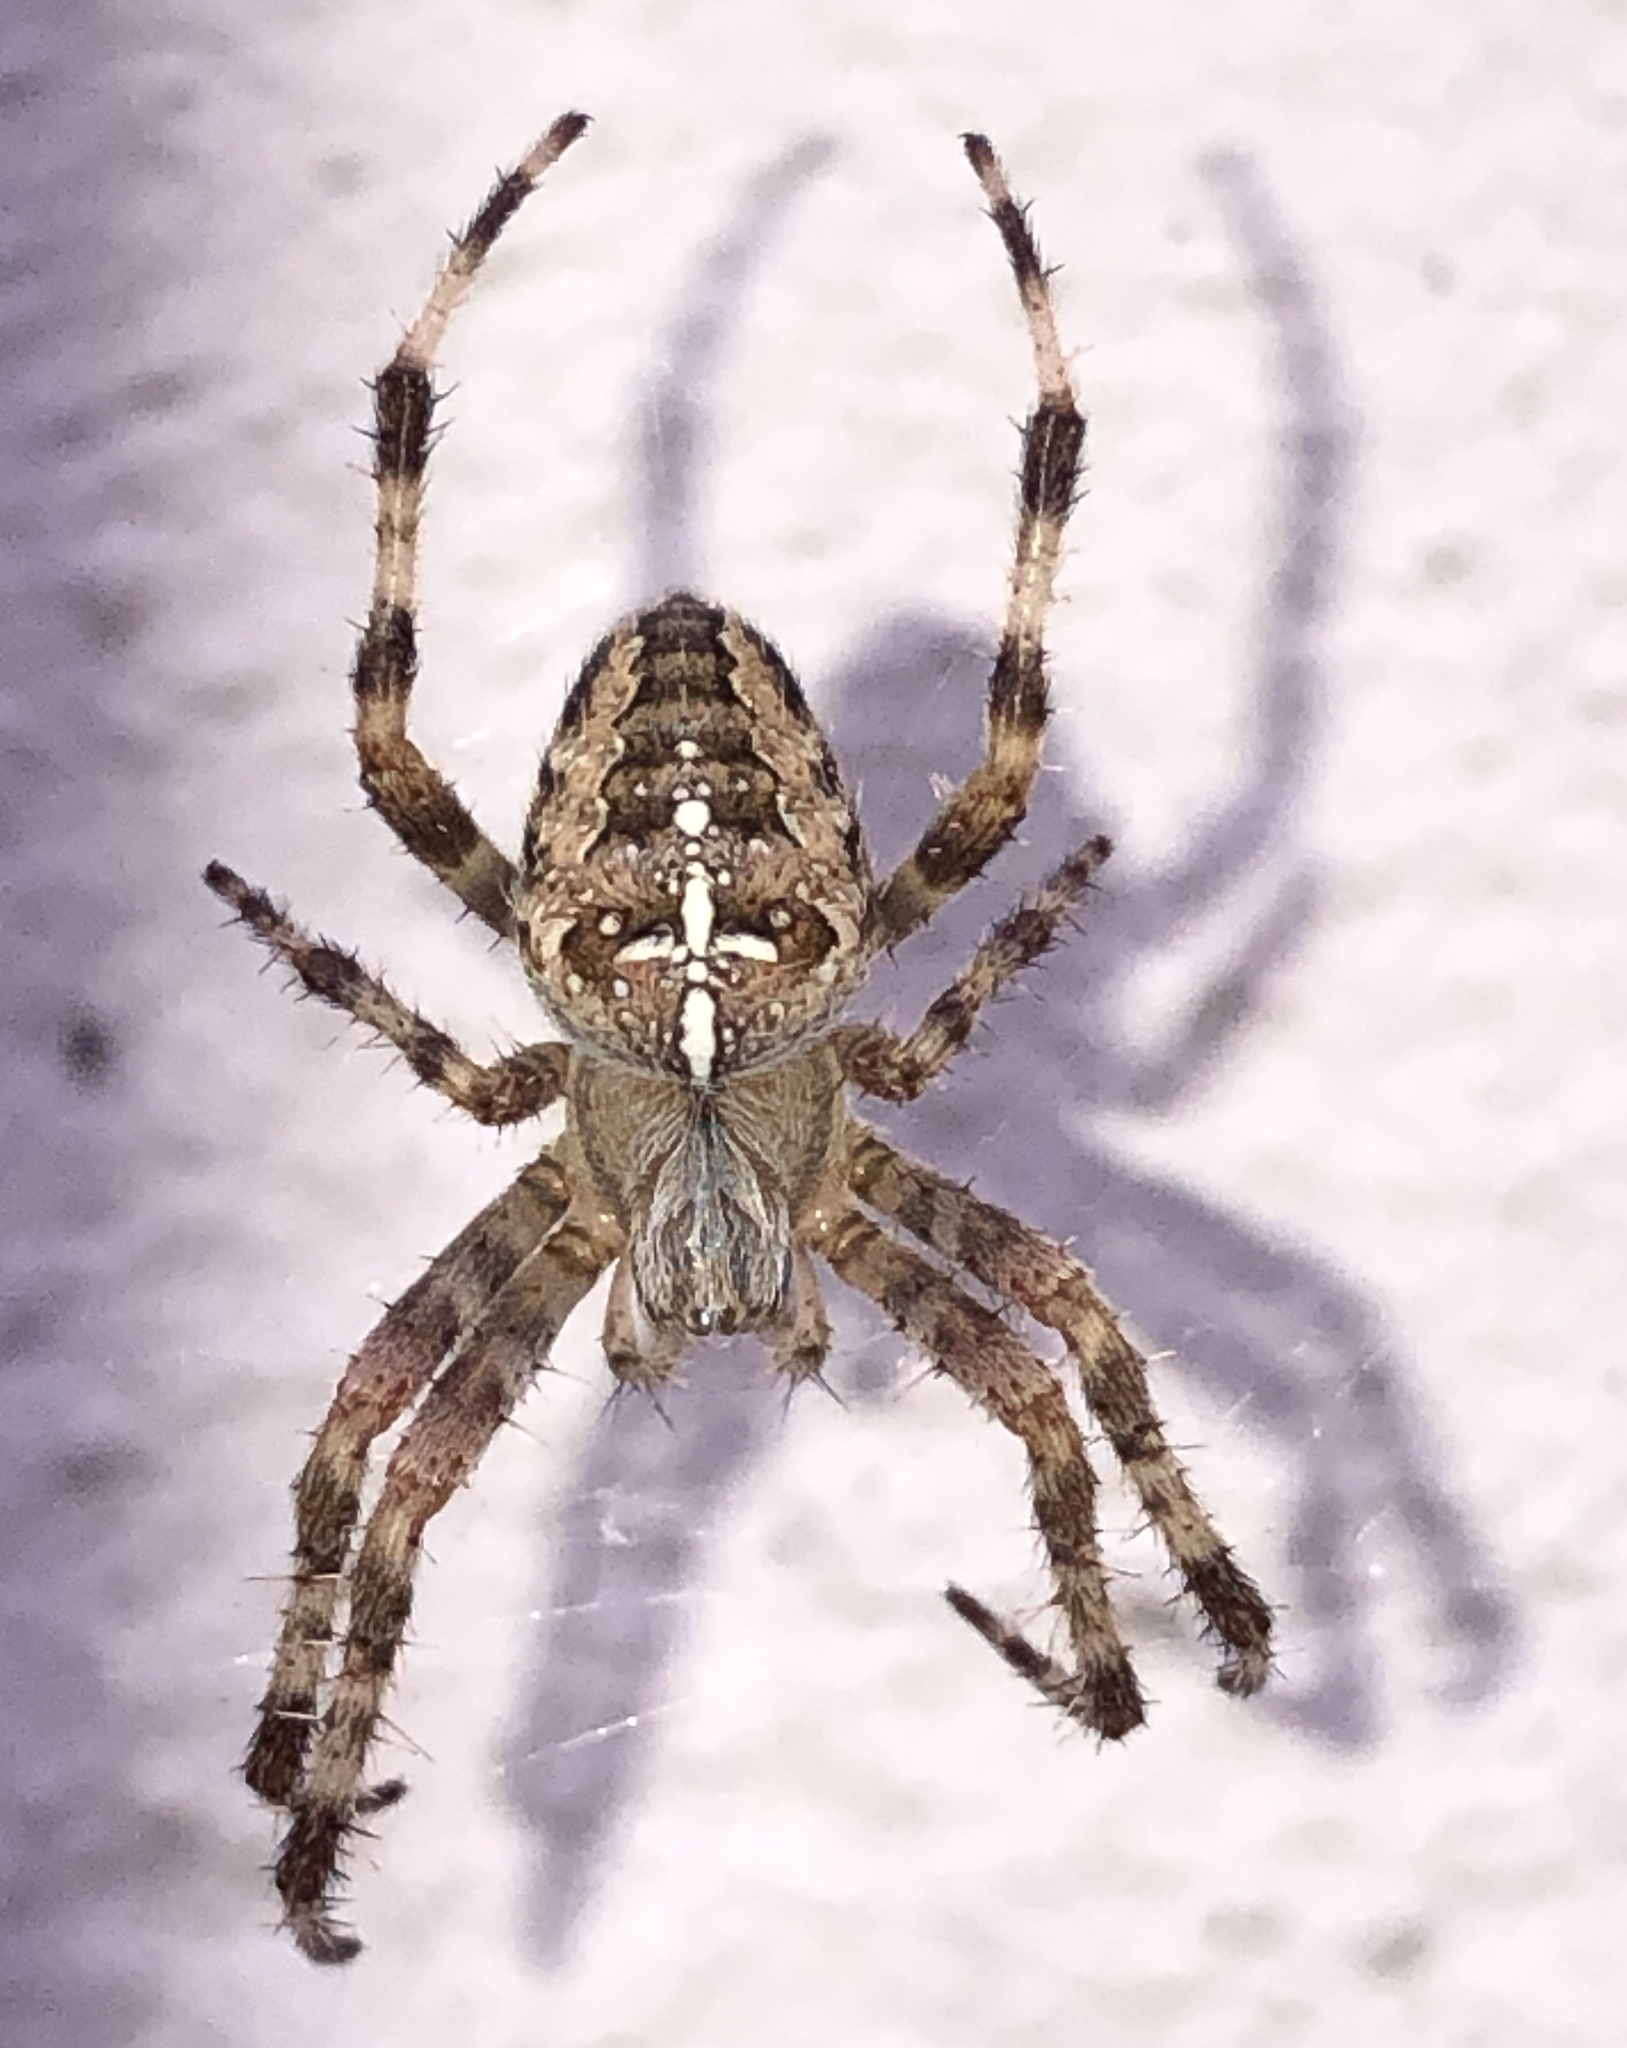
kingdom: Animalia
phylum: Arthropoda
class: Arachnida
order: Araneae
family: Araneidae
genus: Araneus
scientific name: Araneus diadematus
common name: Cross orbweaver
